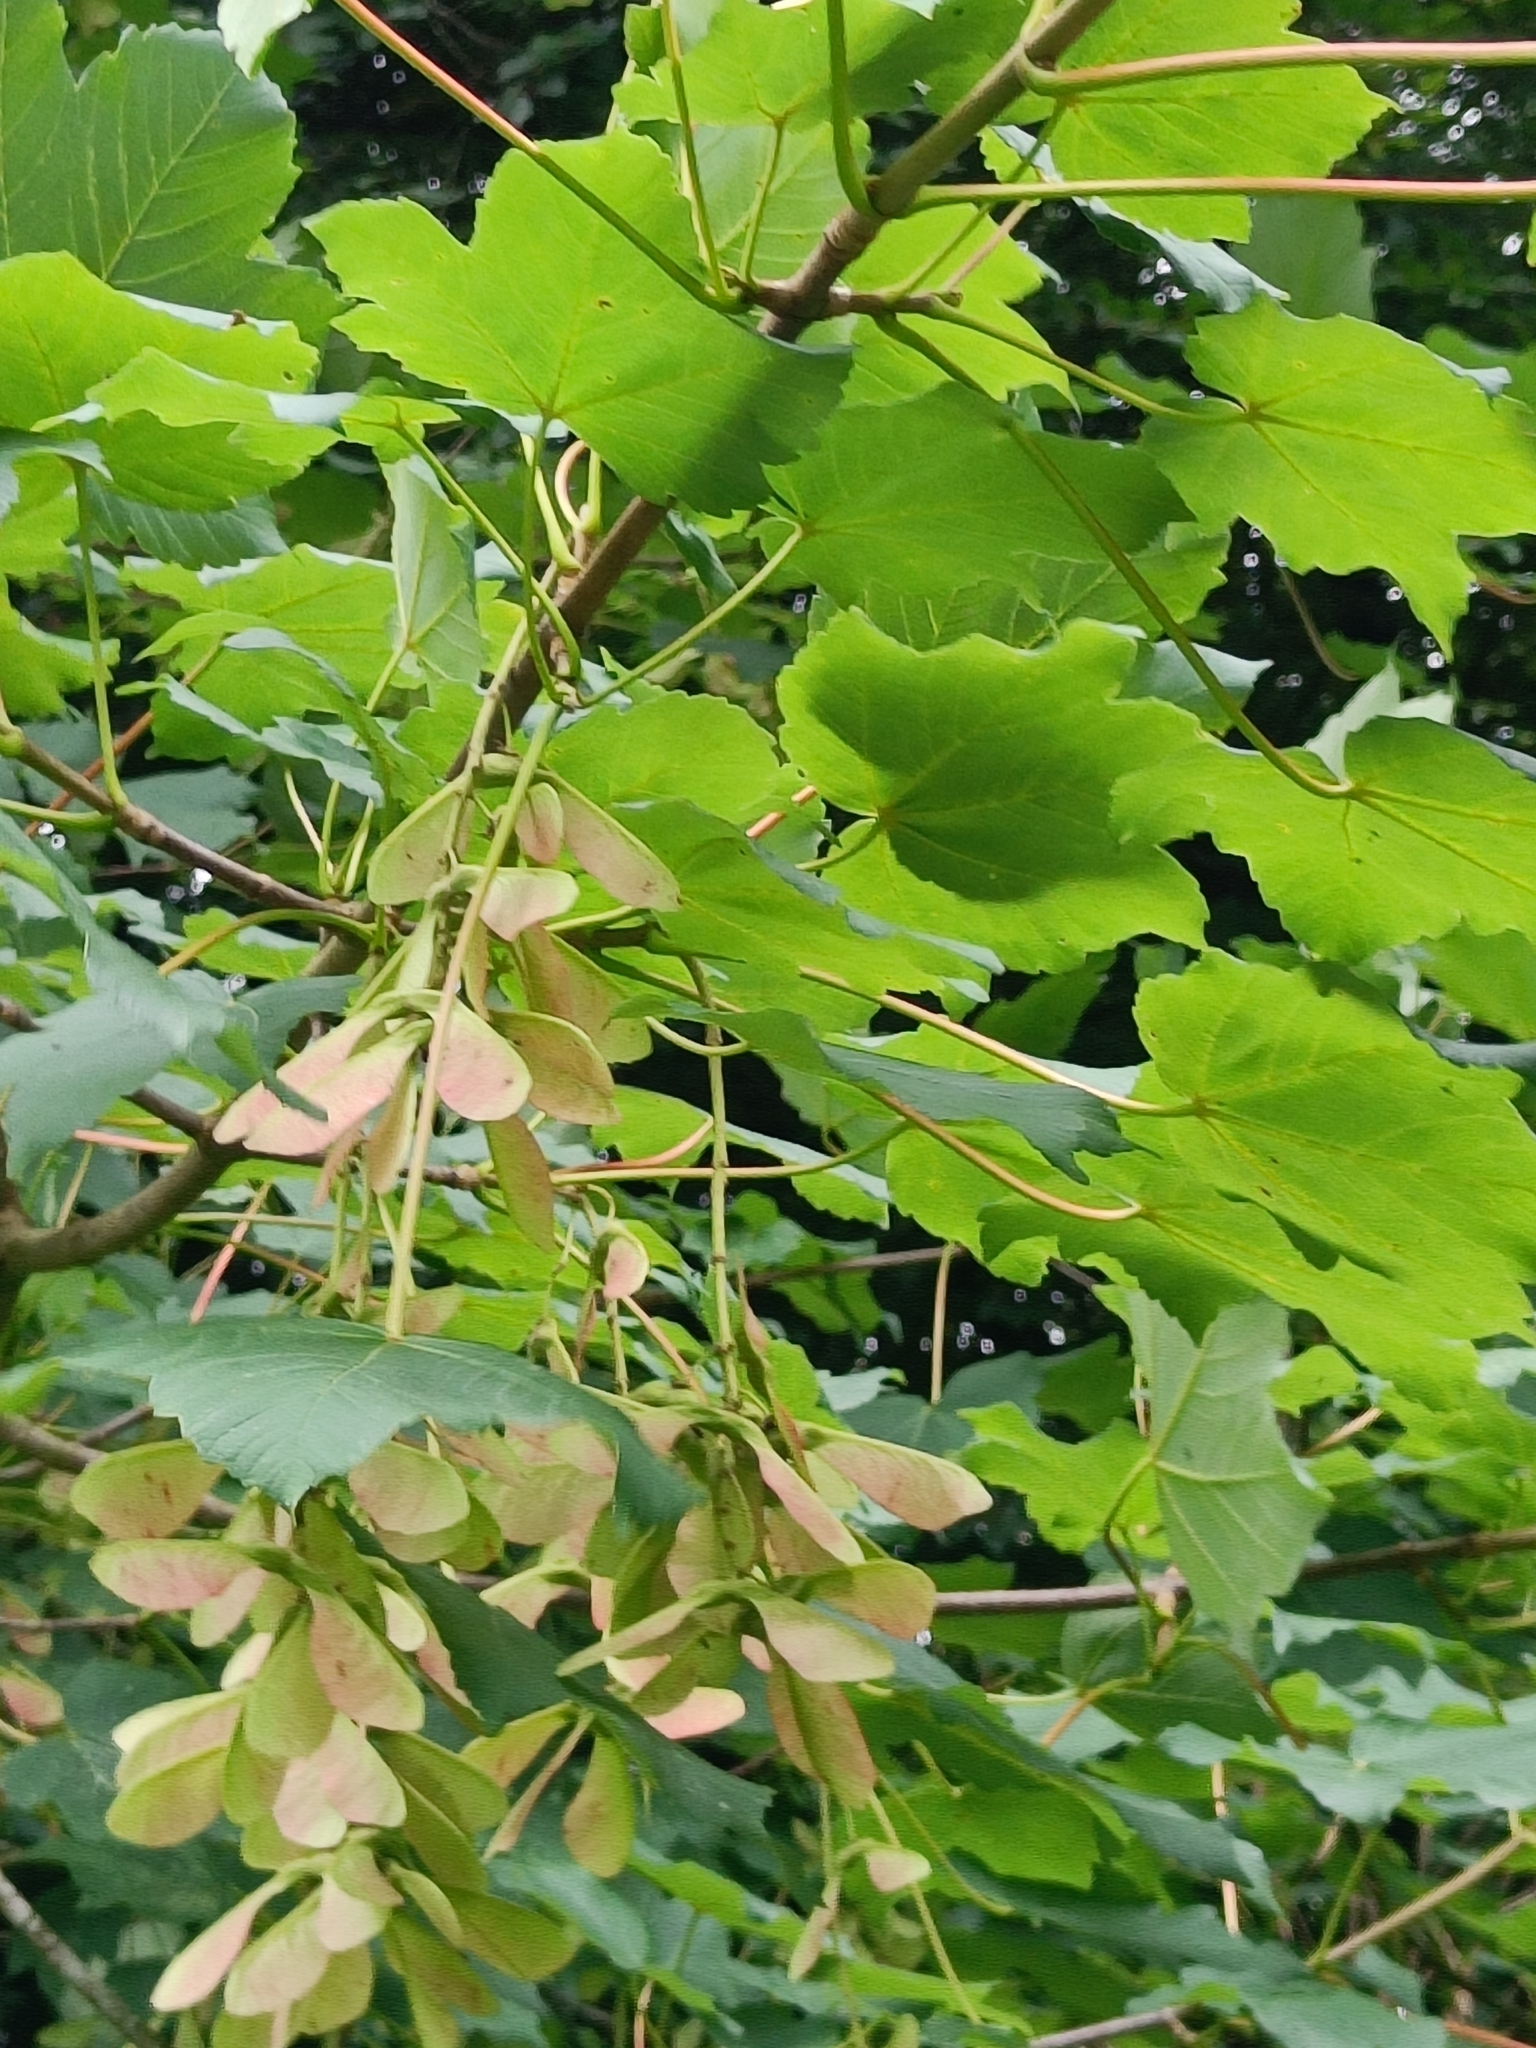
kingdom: Plantae
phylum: Tracheophyta
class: Magnoliopsida
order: Sapindales
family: Sapindaceae
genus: Acer
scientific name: Acer pseudoplatanus
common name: Sycamore
